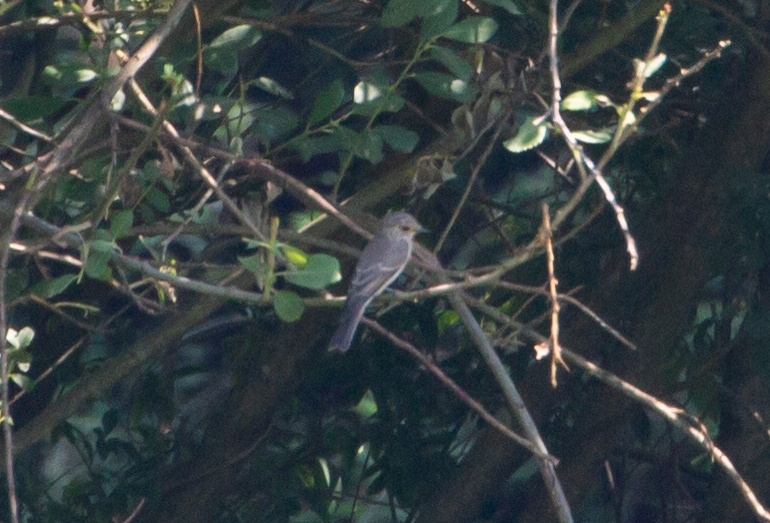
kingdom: Animalia
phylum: Chordata
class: Aves
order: Passeriformes
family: Muscicapidae
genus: Muscicapa
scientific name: Muscicapa striata
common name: Spotted flycatcher
